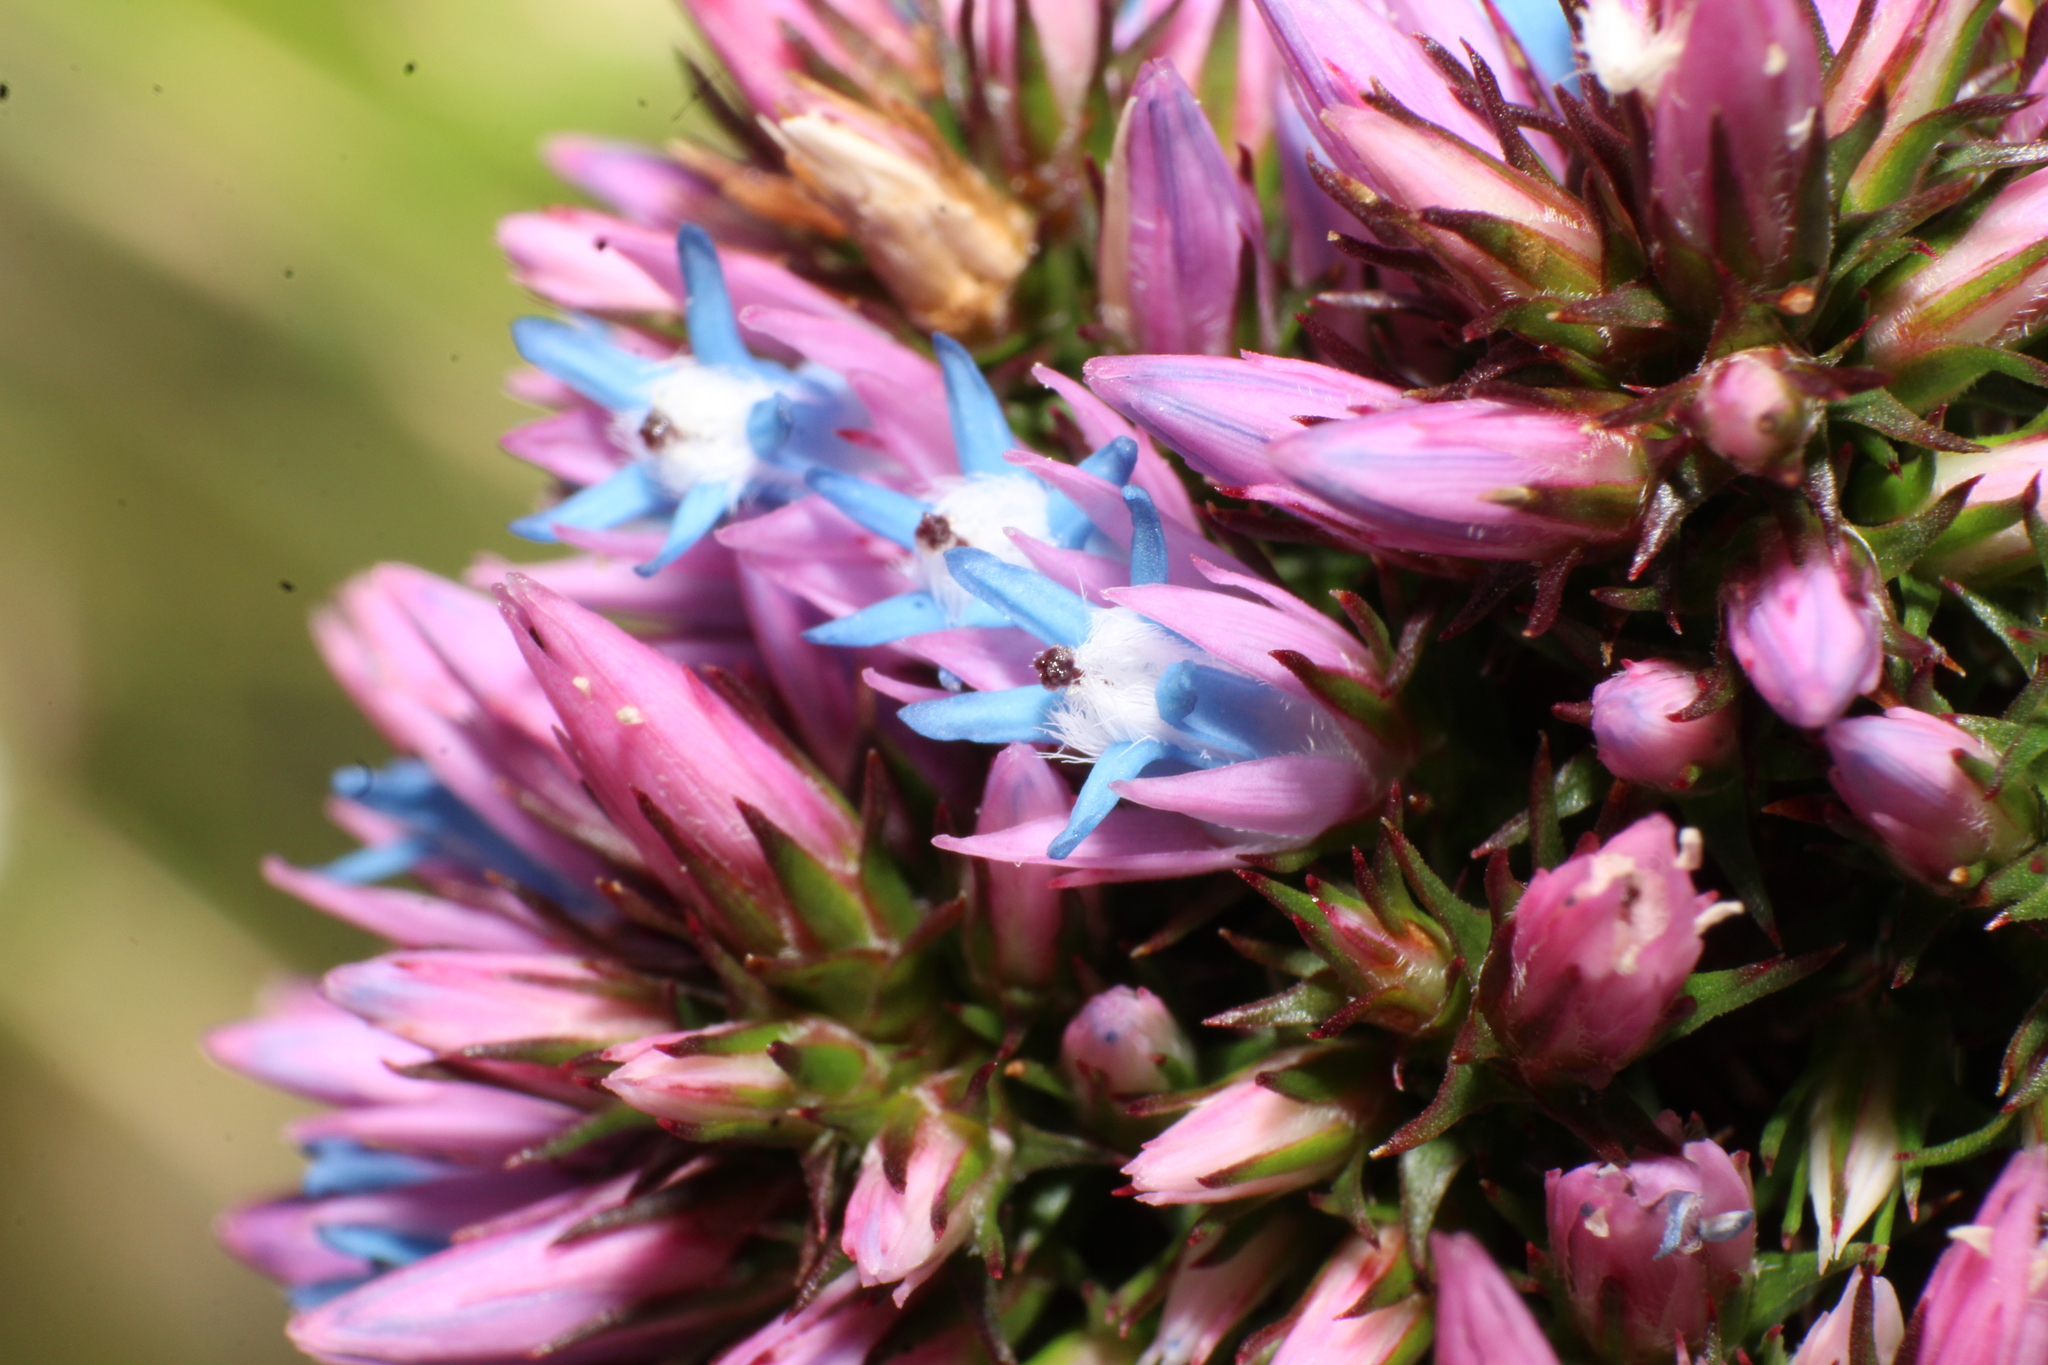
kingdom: Plantae
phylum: Tracheophyta
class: Magnoliopsida
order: Ericales
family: Ericaceae
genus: Andersonia
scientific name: Andersonia caerulea
